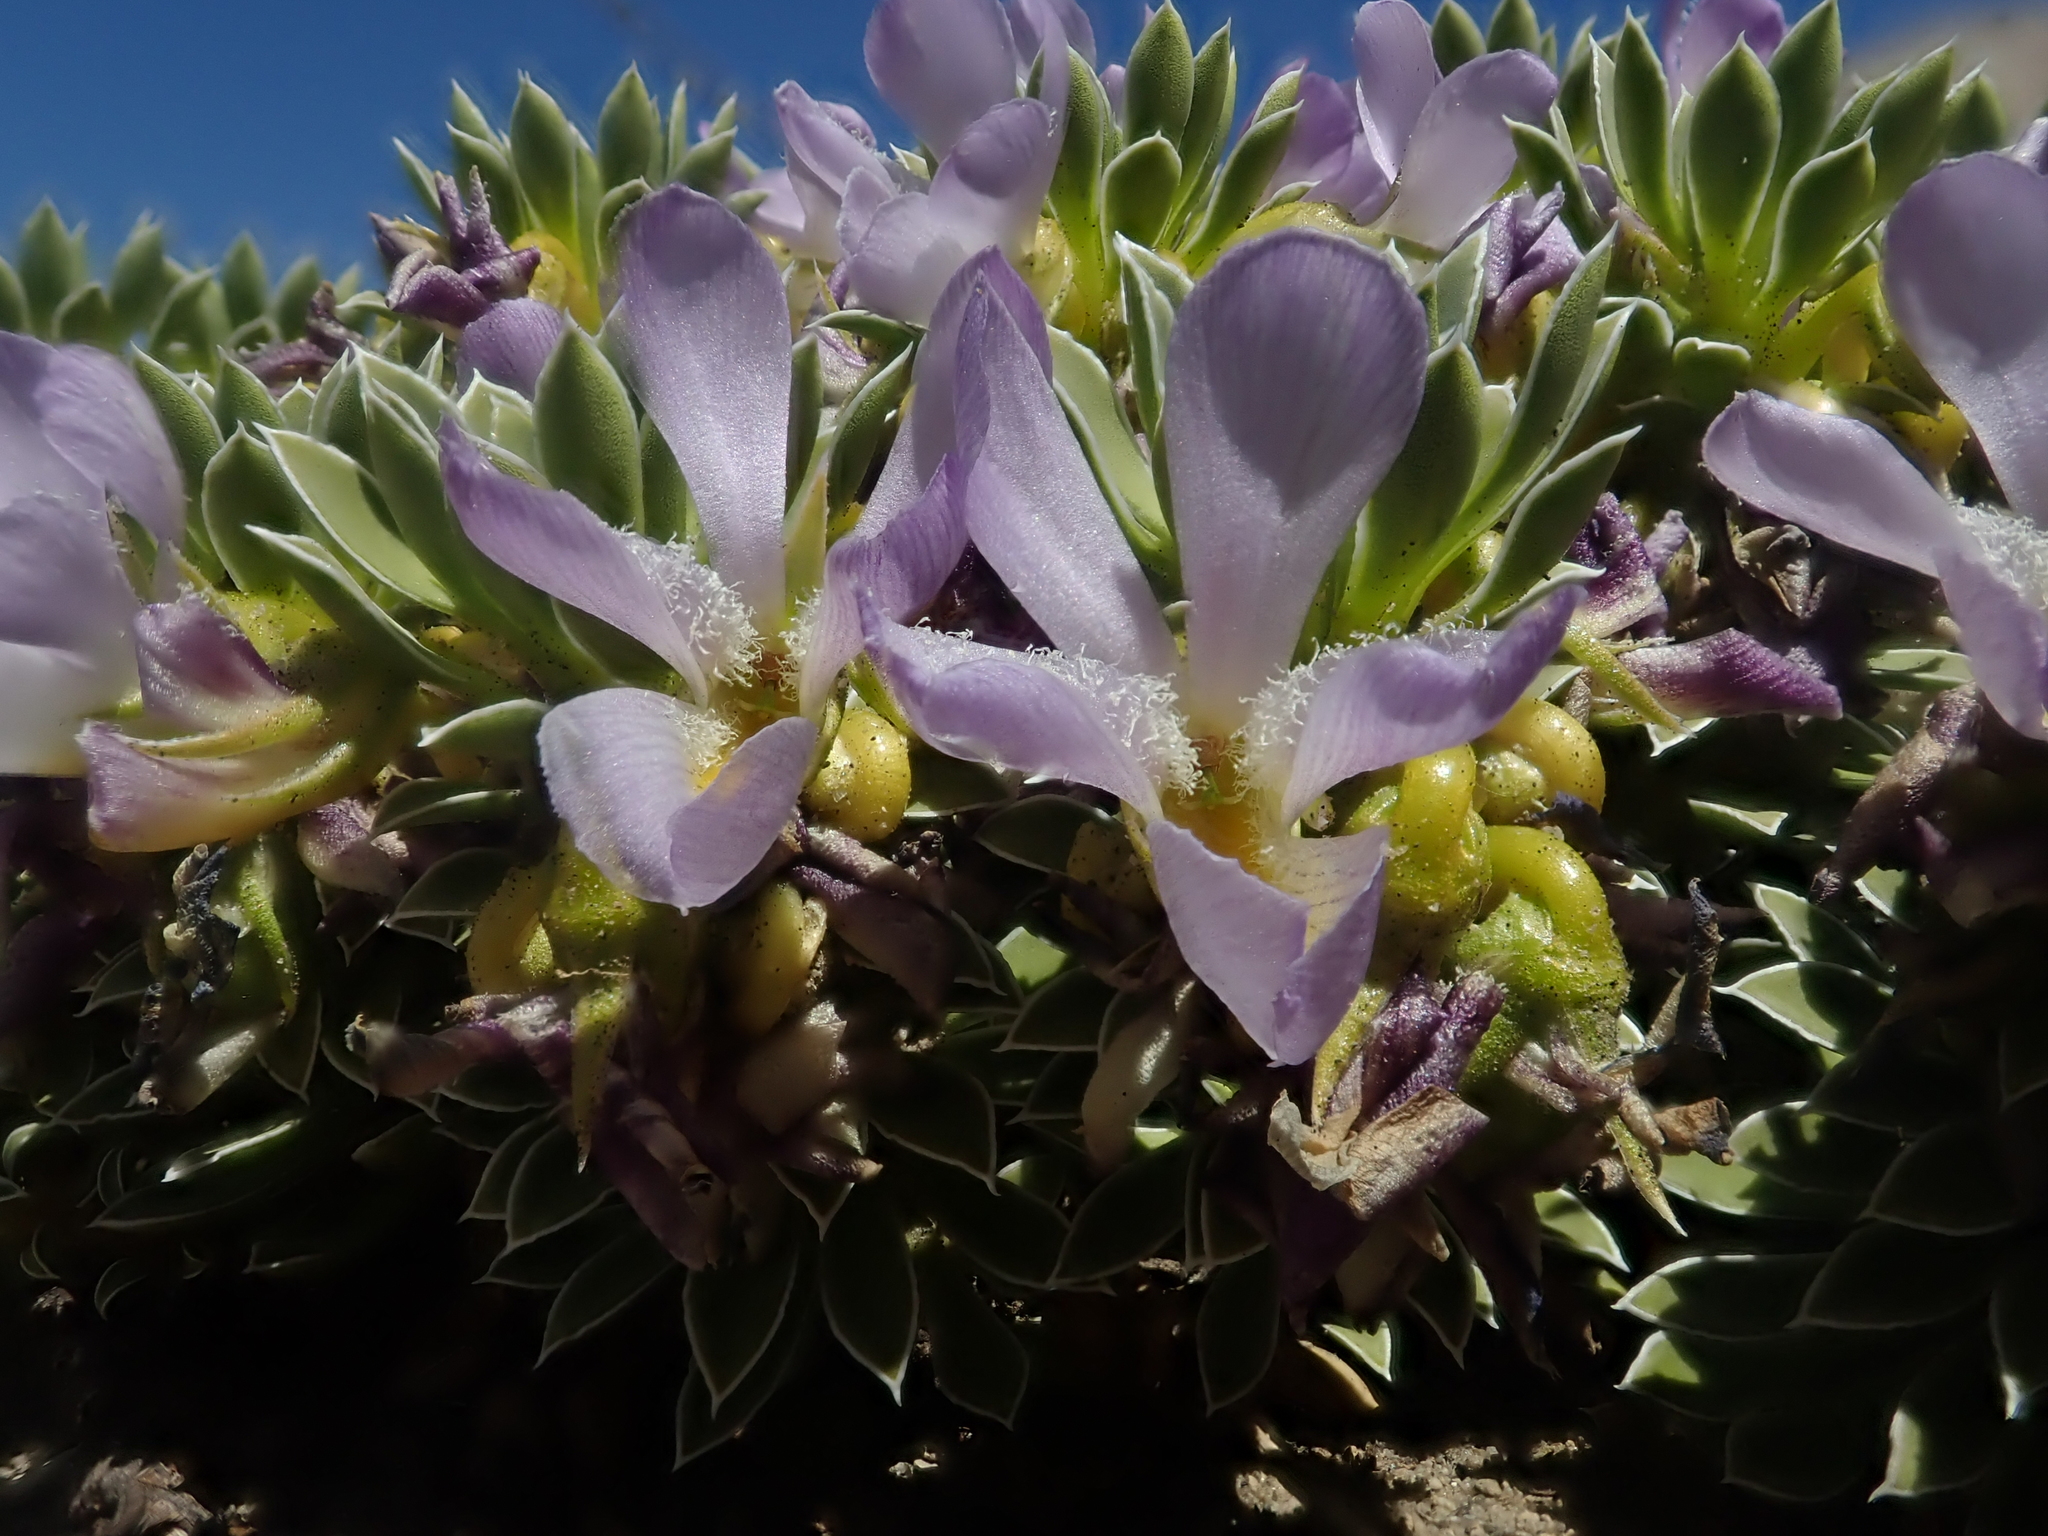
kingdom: Plantae
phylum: Tracheophyta
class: Magnoliopsida
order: Malpighiales
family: Violaceae
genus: Viola
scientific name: Viola cotyledon
